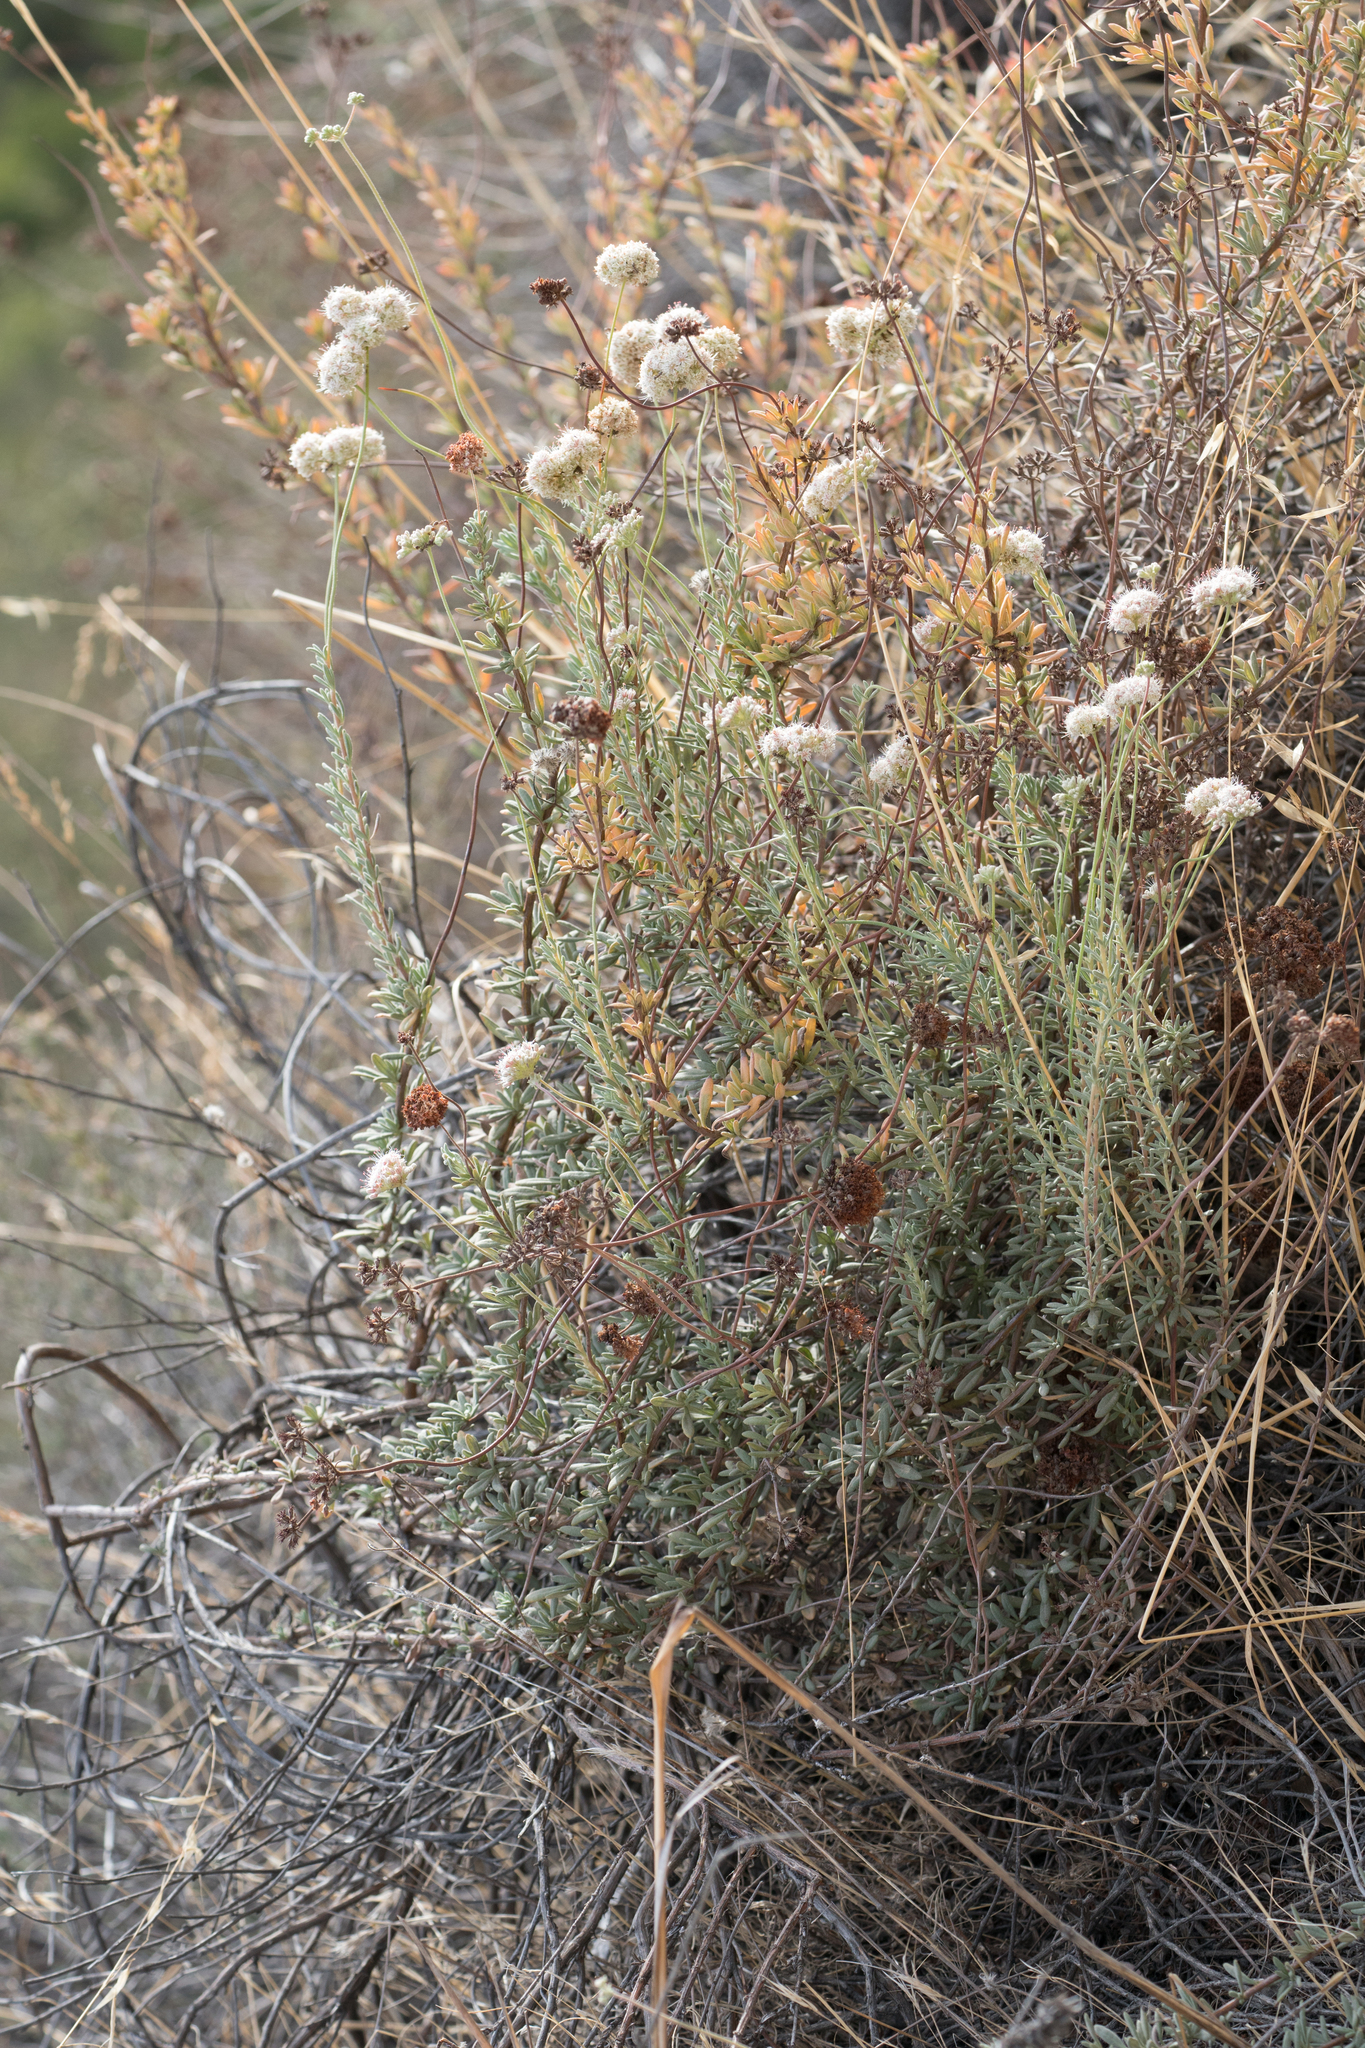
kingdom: Plantae
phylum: Tracheophyta
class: Magnoliopsida
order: Caryophyllales
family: Polygonaceae
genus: Eriogonum
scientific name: Eriogonum fasciculatum
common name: California wild buckwheat
